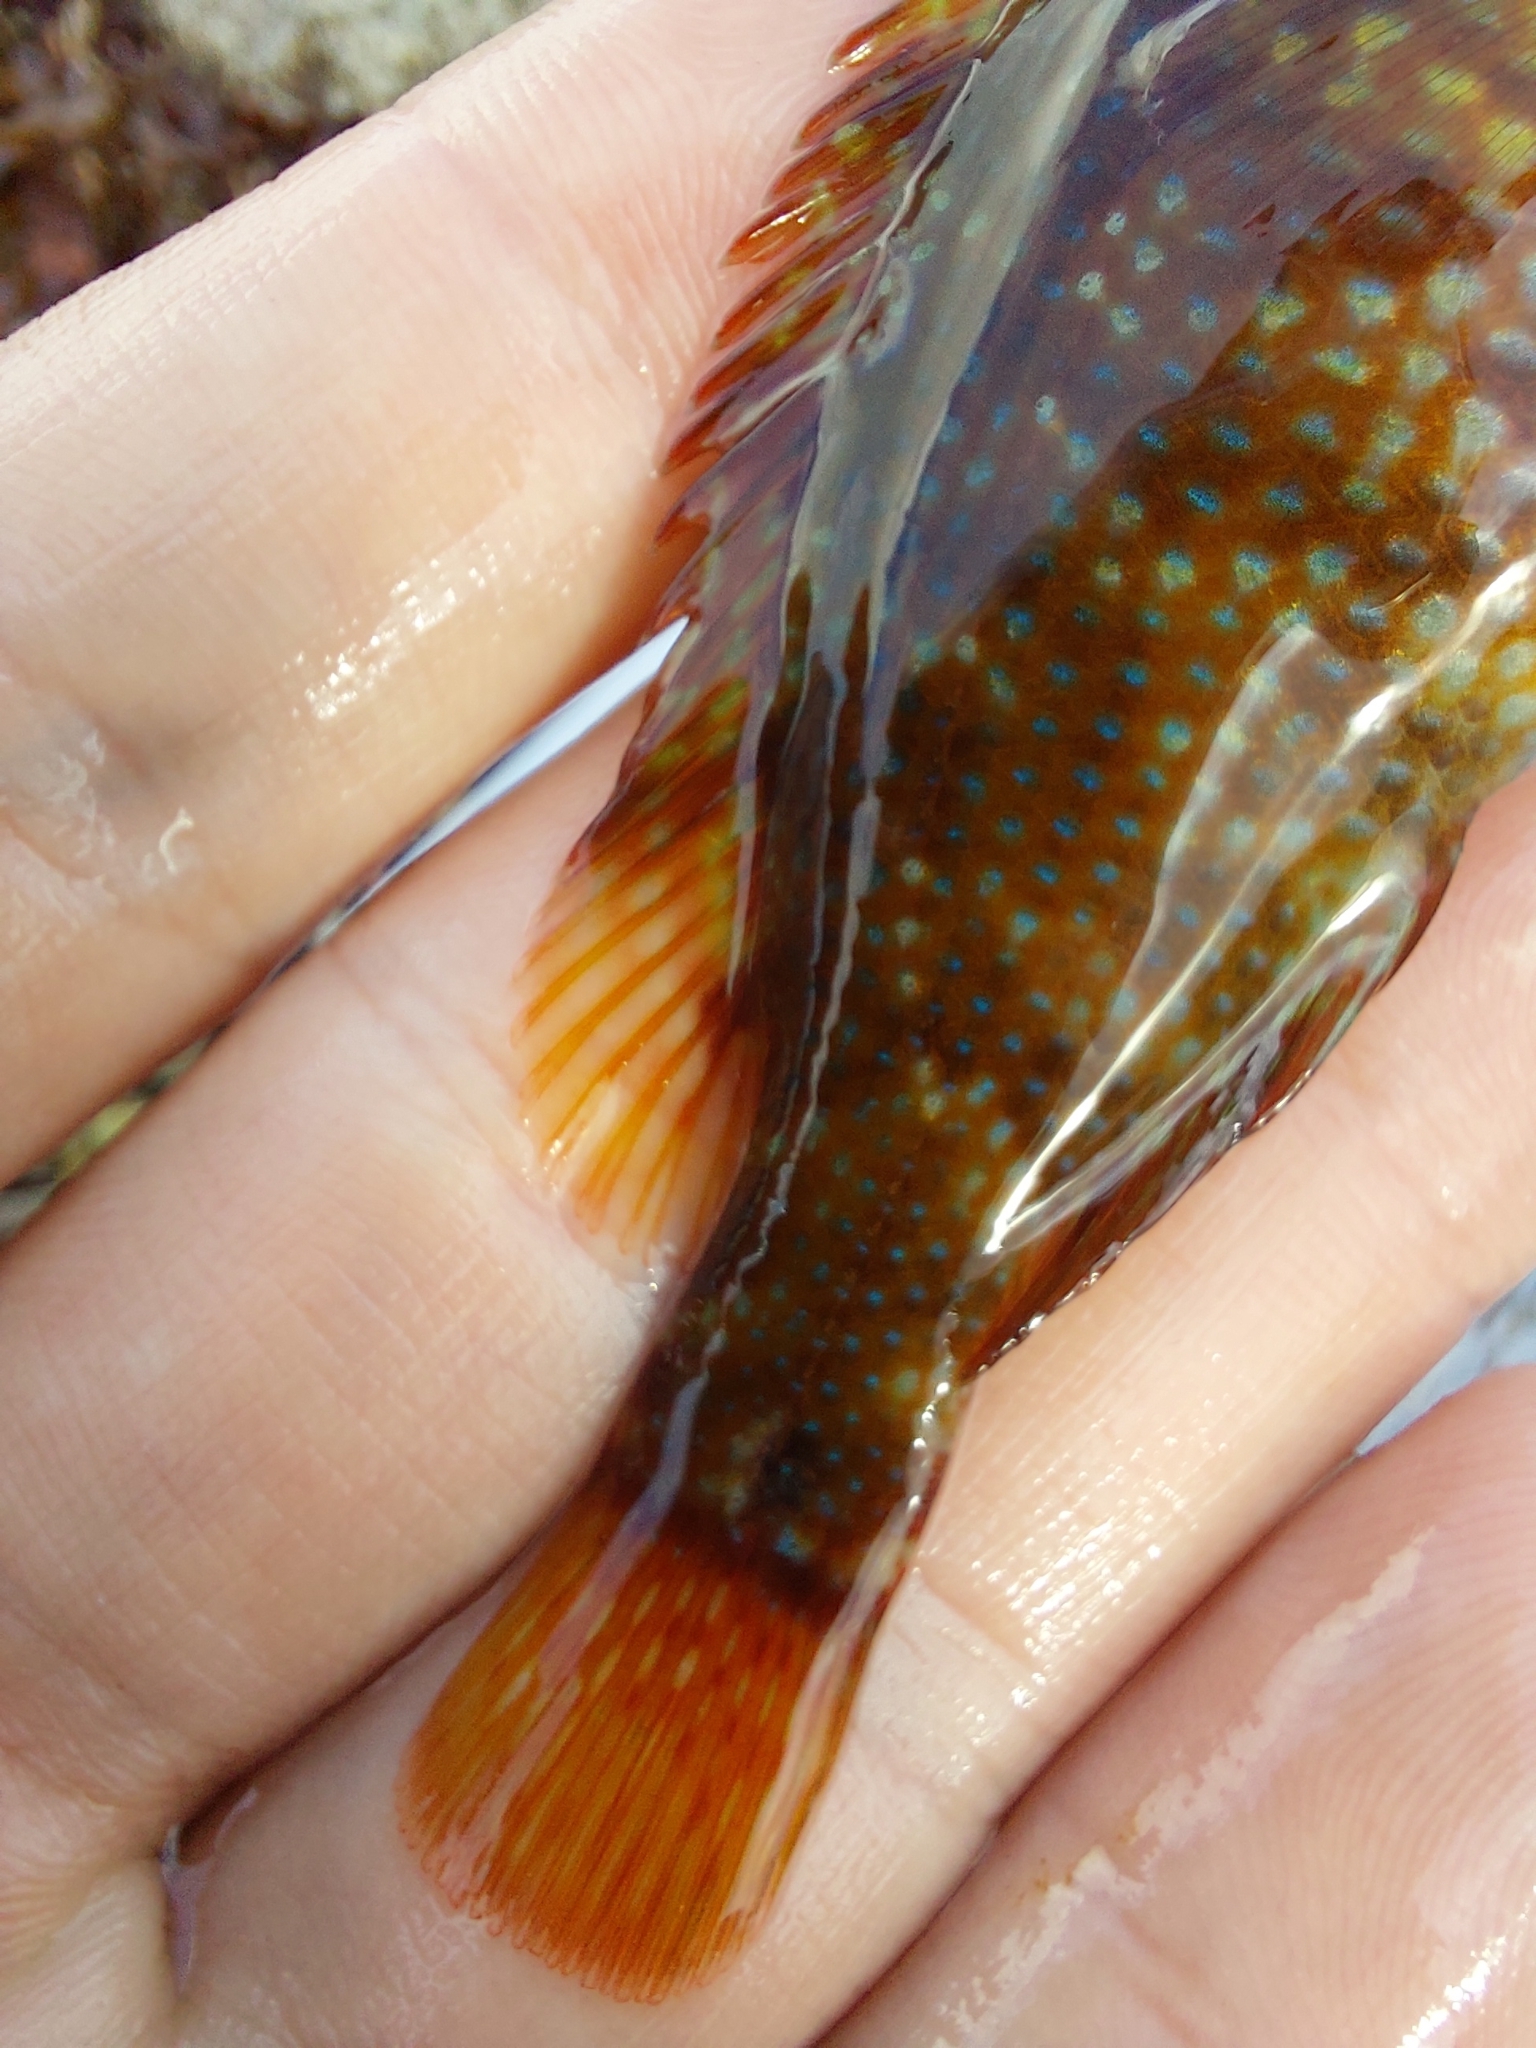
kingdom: Animalia
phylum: Chordata
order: Perciformes
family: Labridae
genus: Symphodus
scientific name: Symphodus melops
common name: Corkwing
